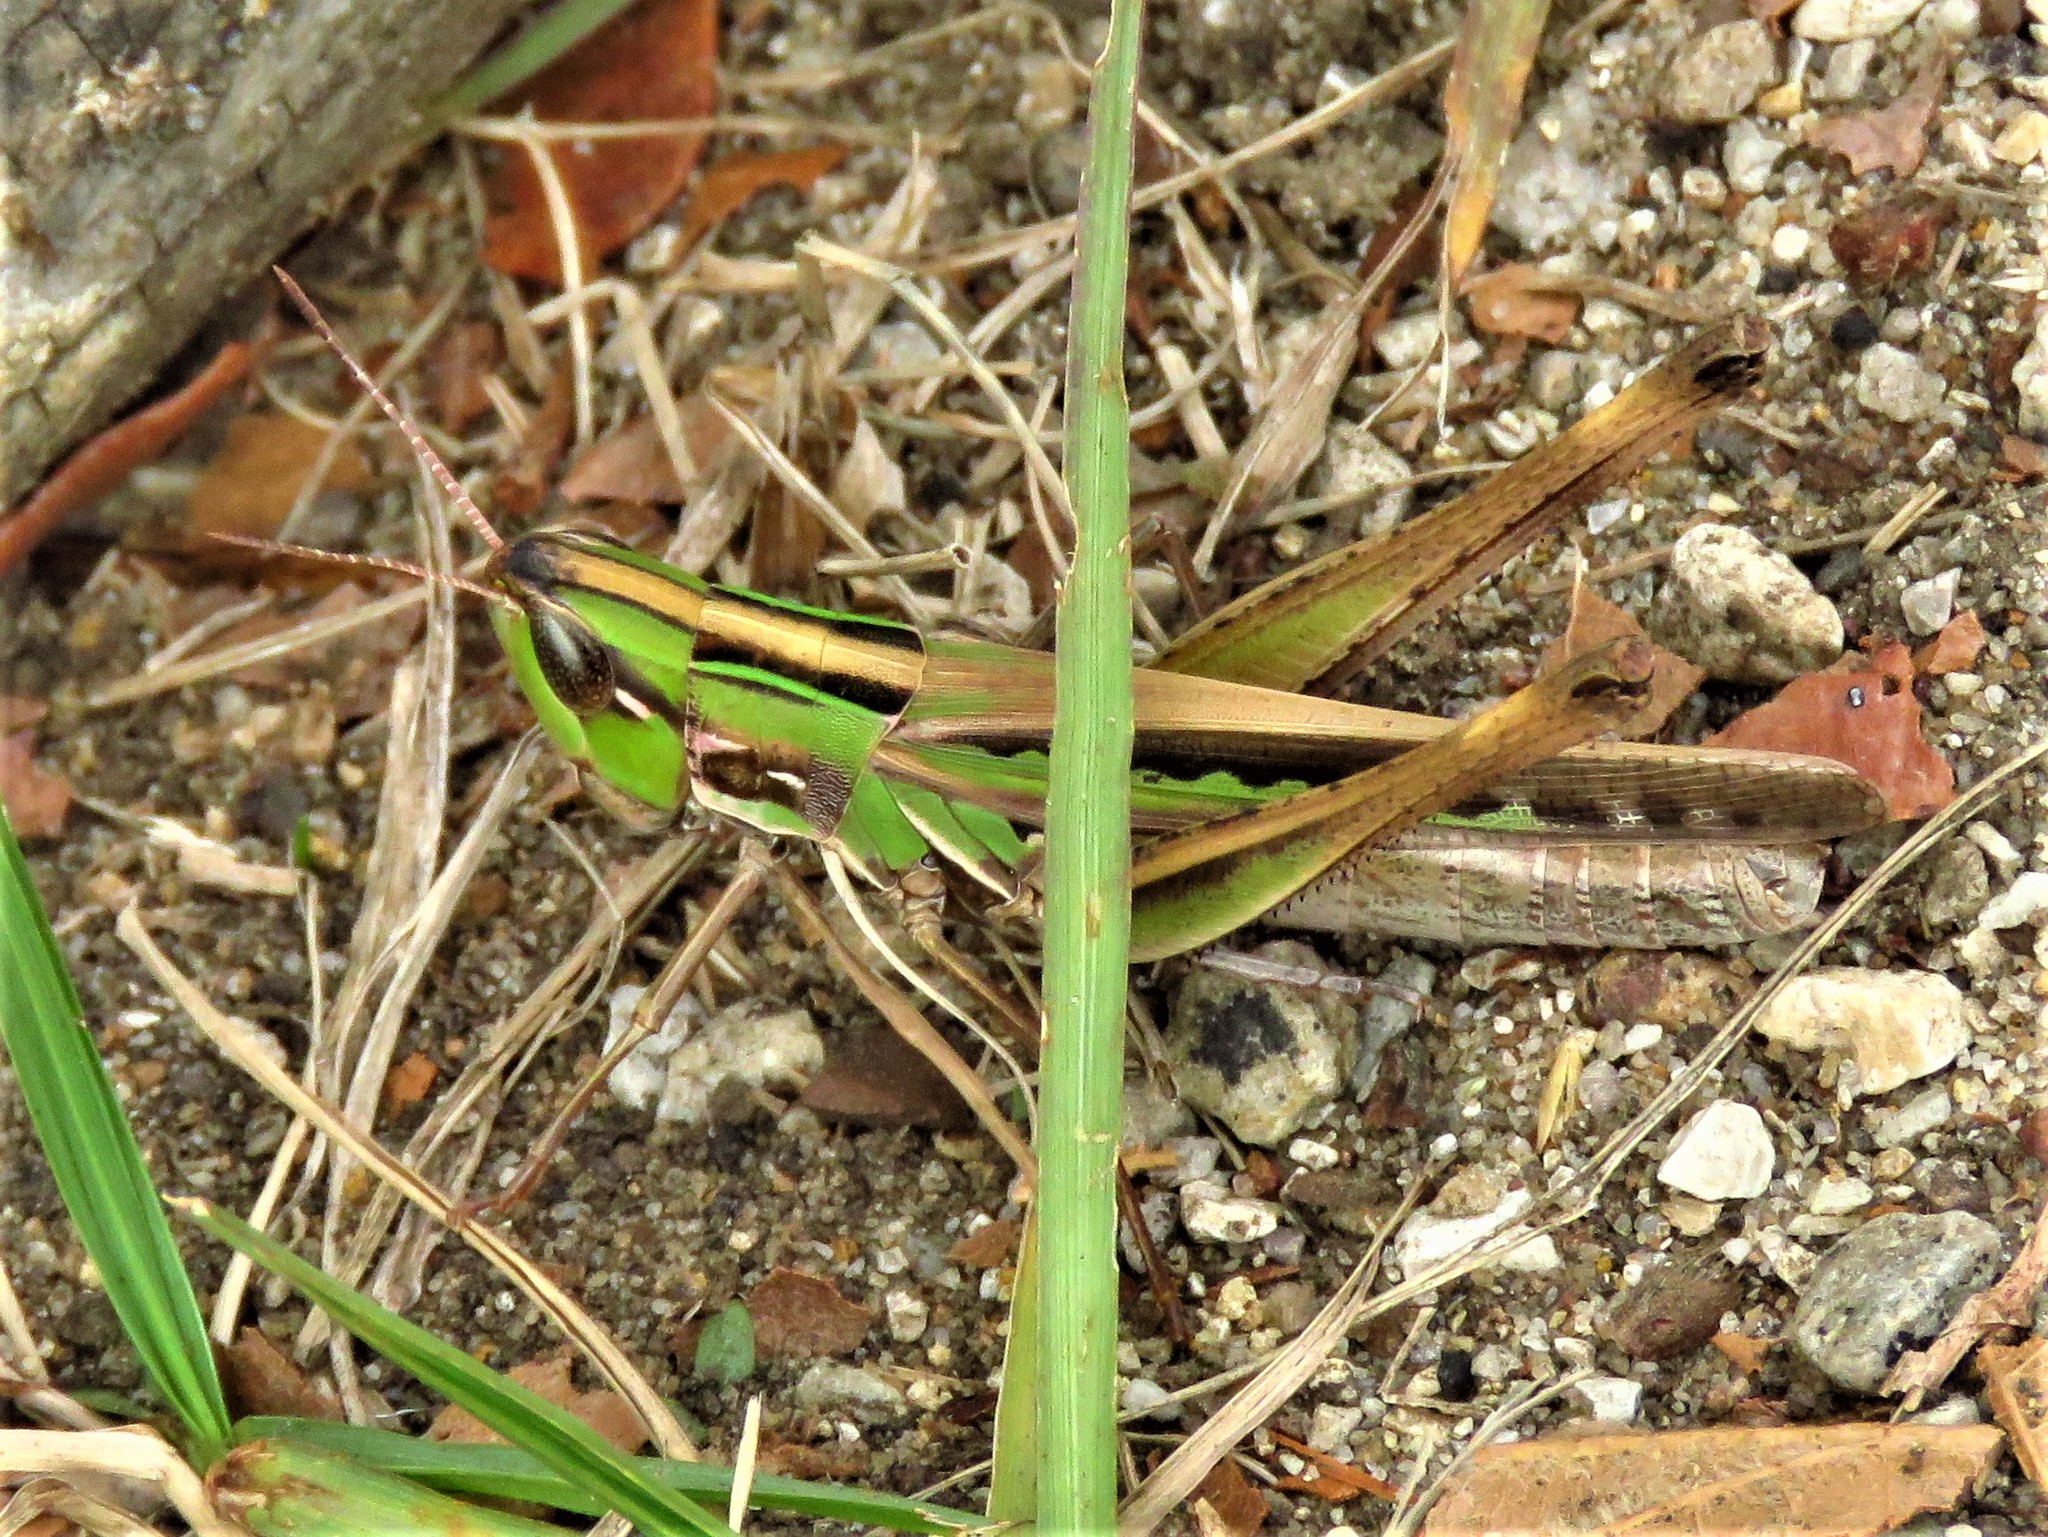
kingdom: Animalia
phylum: Arthropoda
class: Insecta
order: Orthoptera
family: Acrididae
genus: Syrbula
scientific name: Syrbula admirabilis
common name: Handsome grasshopper
